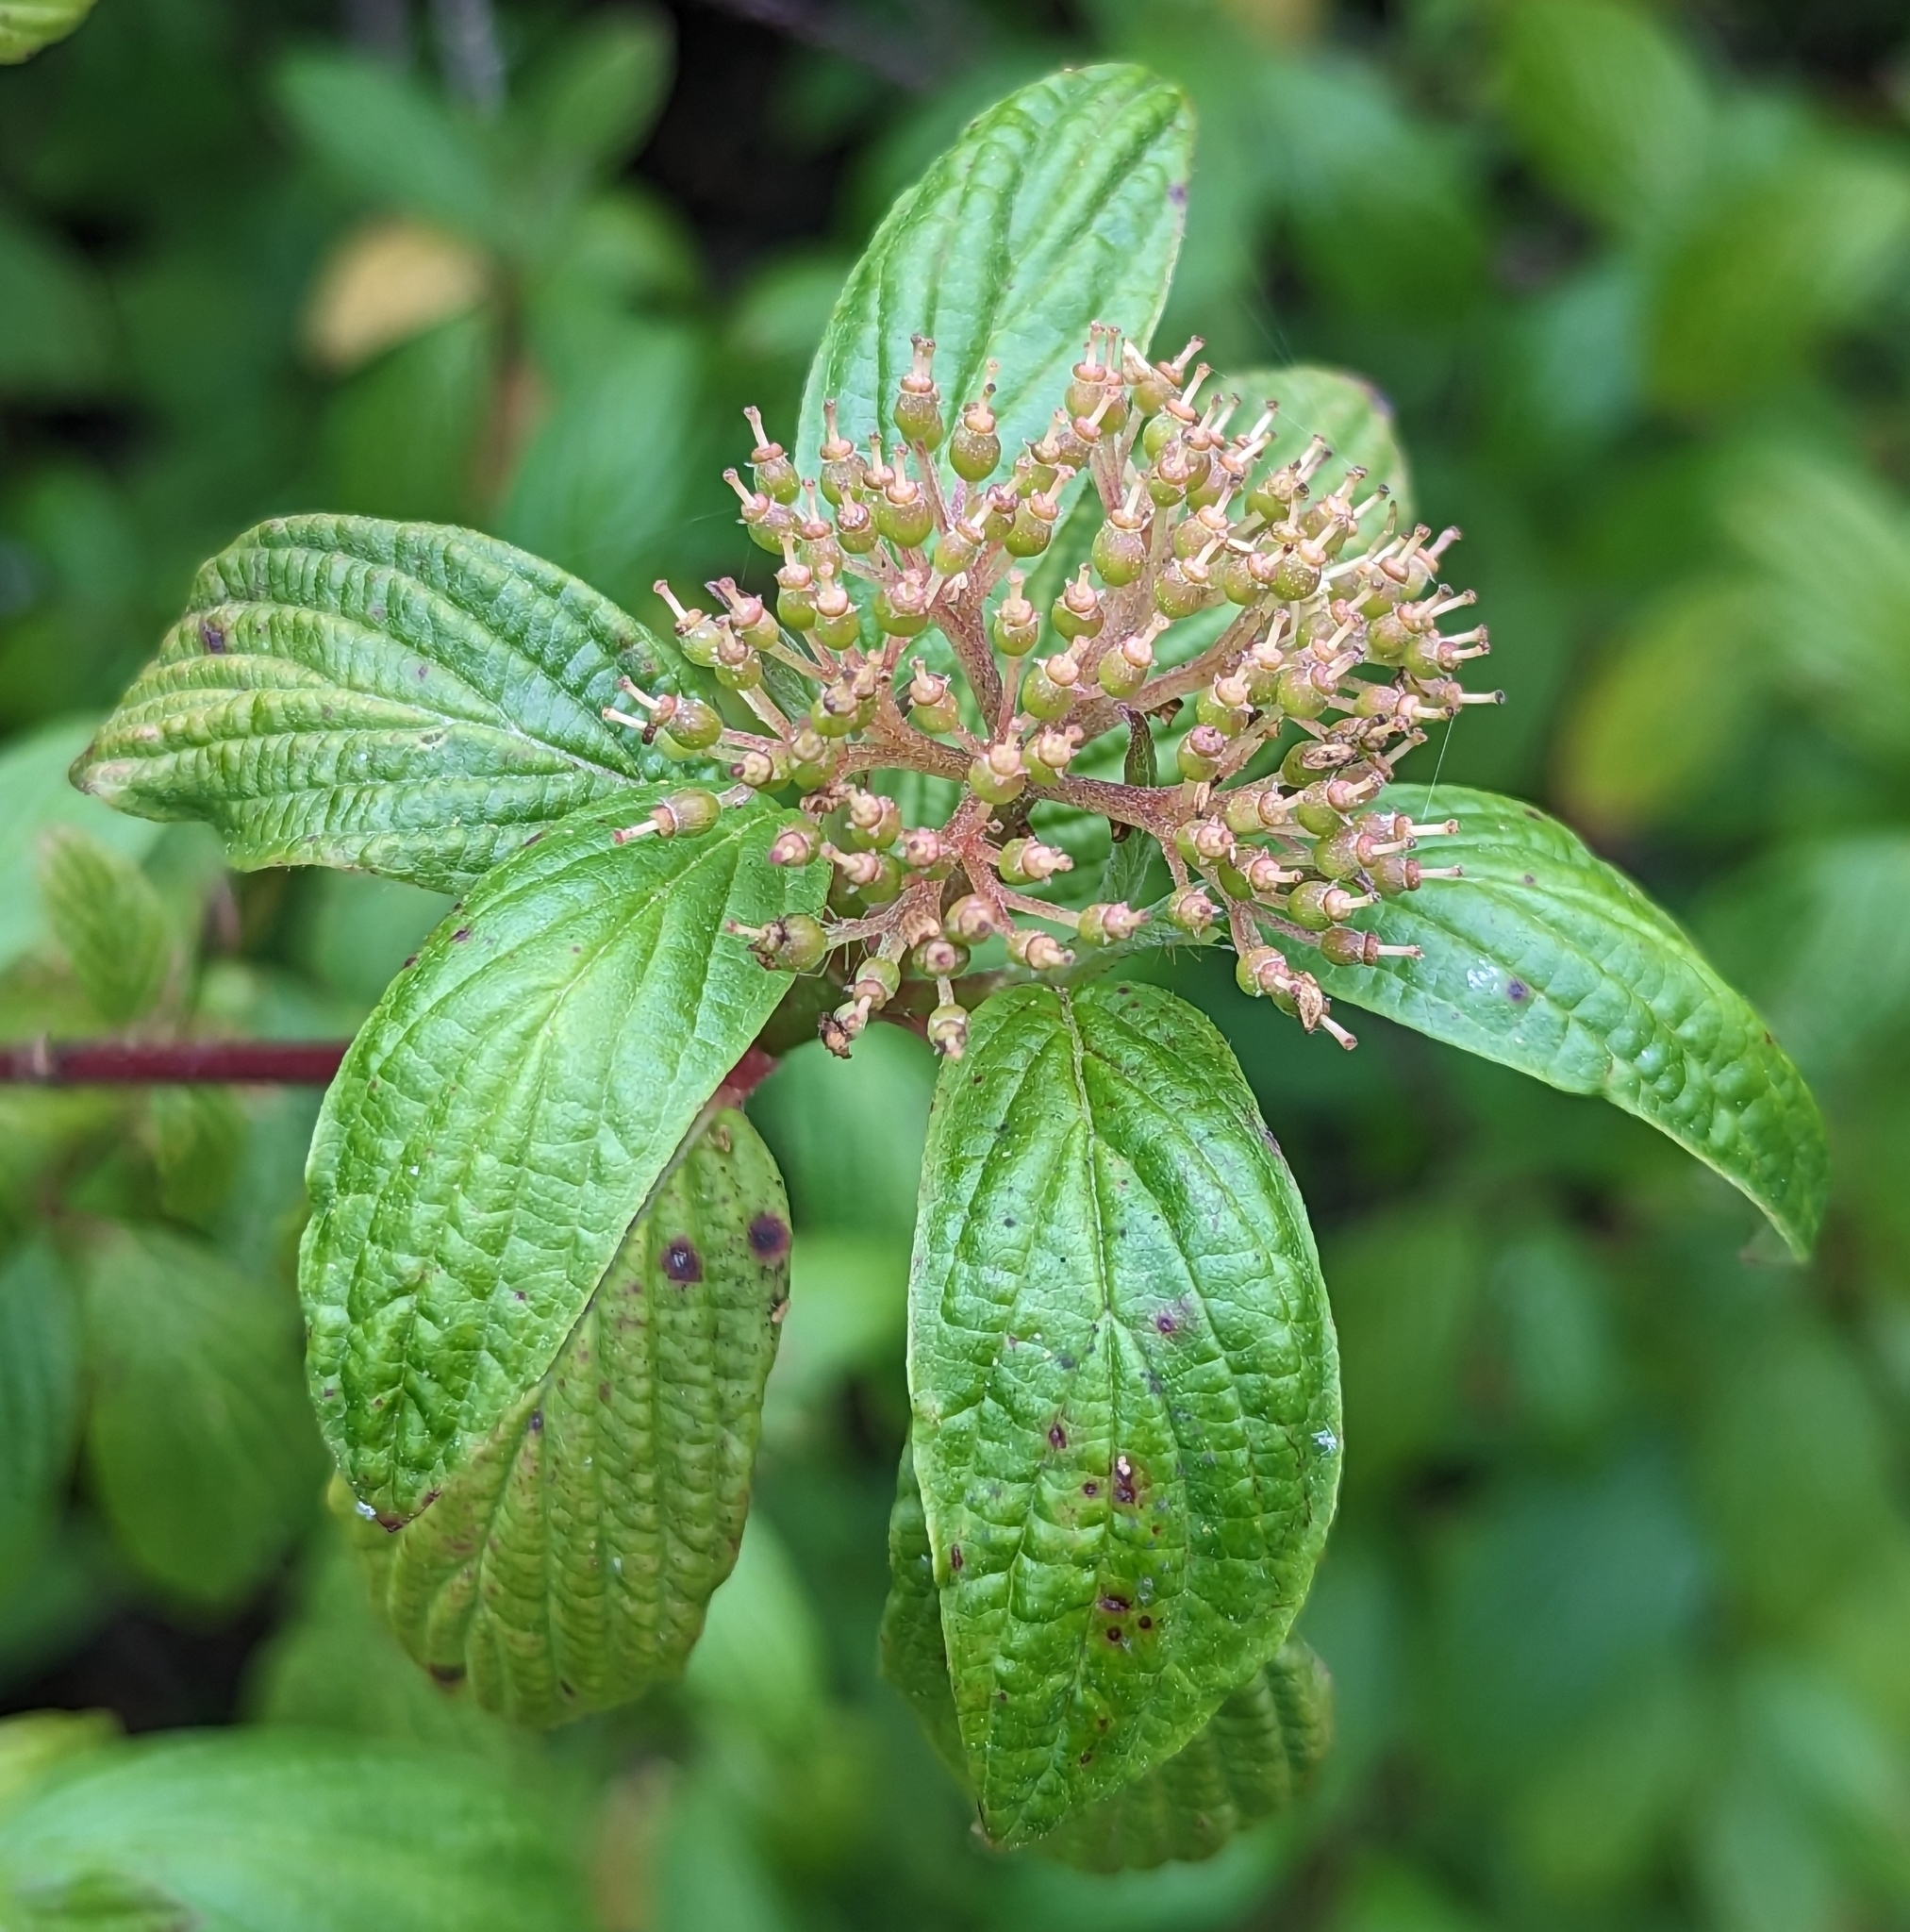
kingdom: Plantae
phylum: Tracheophyta
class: Magnoliopsida
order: Cornales
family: Cornaceae
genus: Cornus
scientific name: Cornus sericea
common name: Red-osier dogwood
